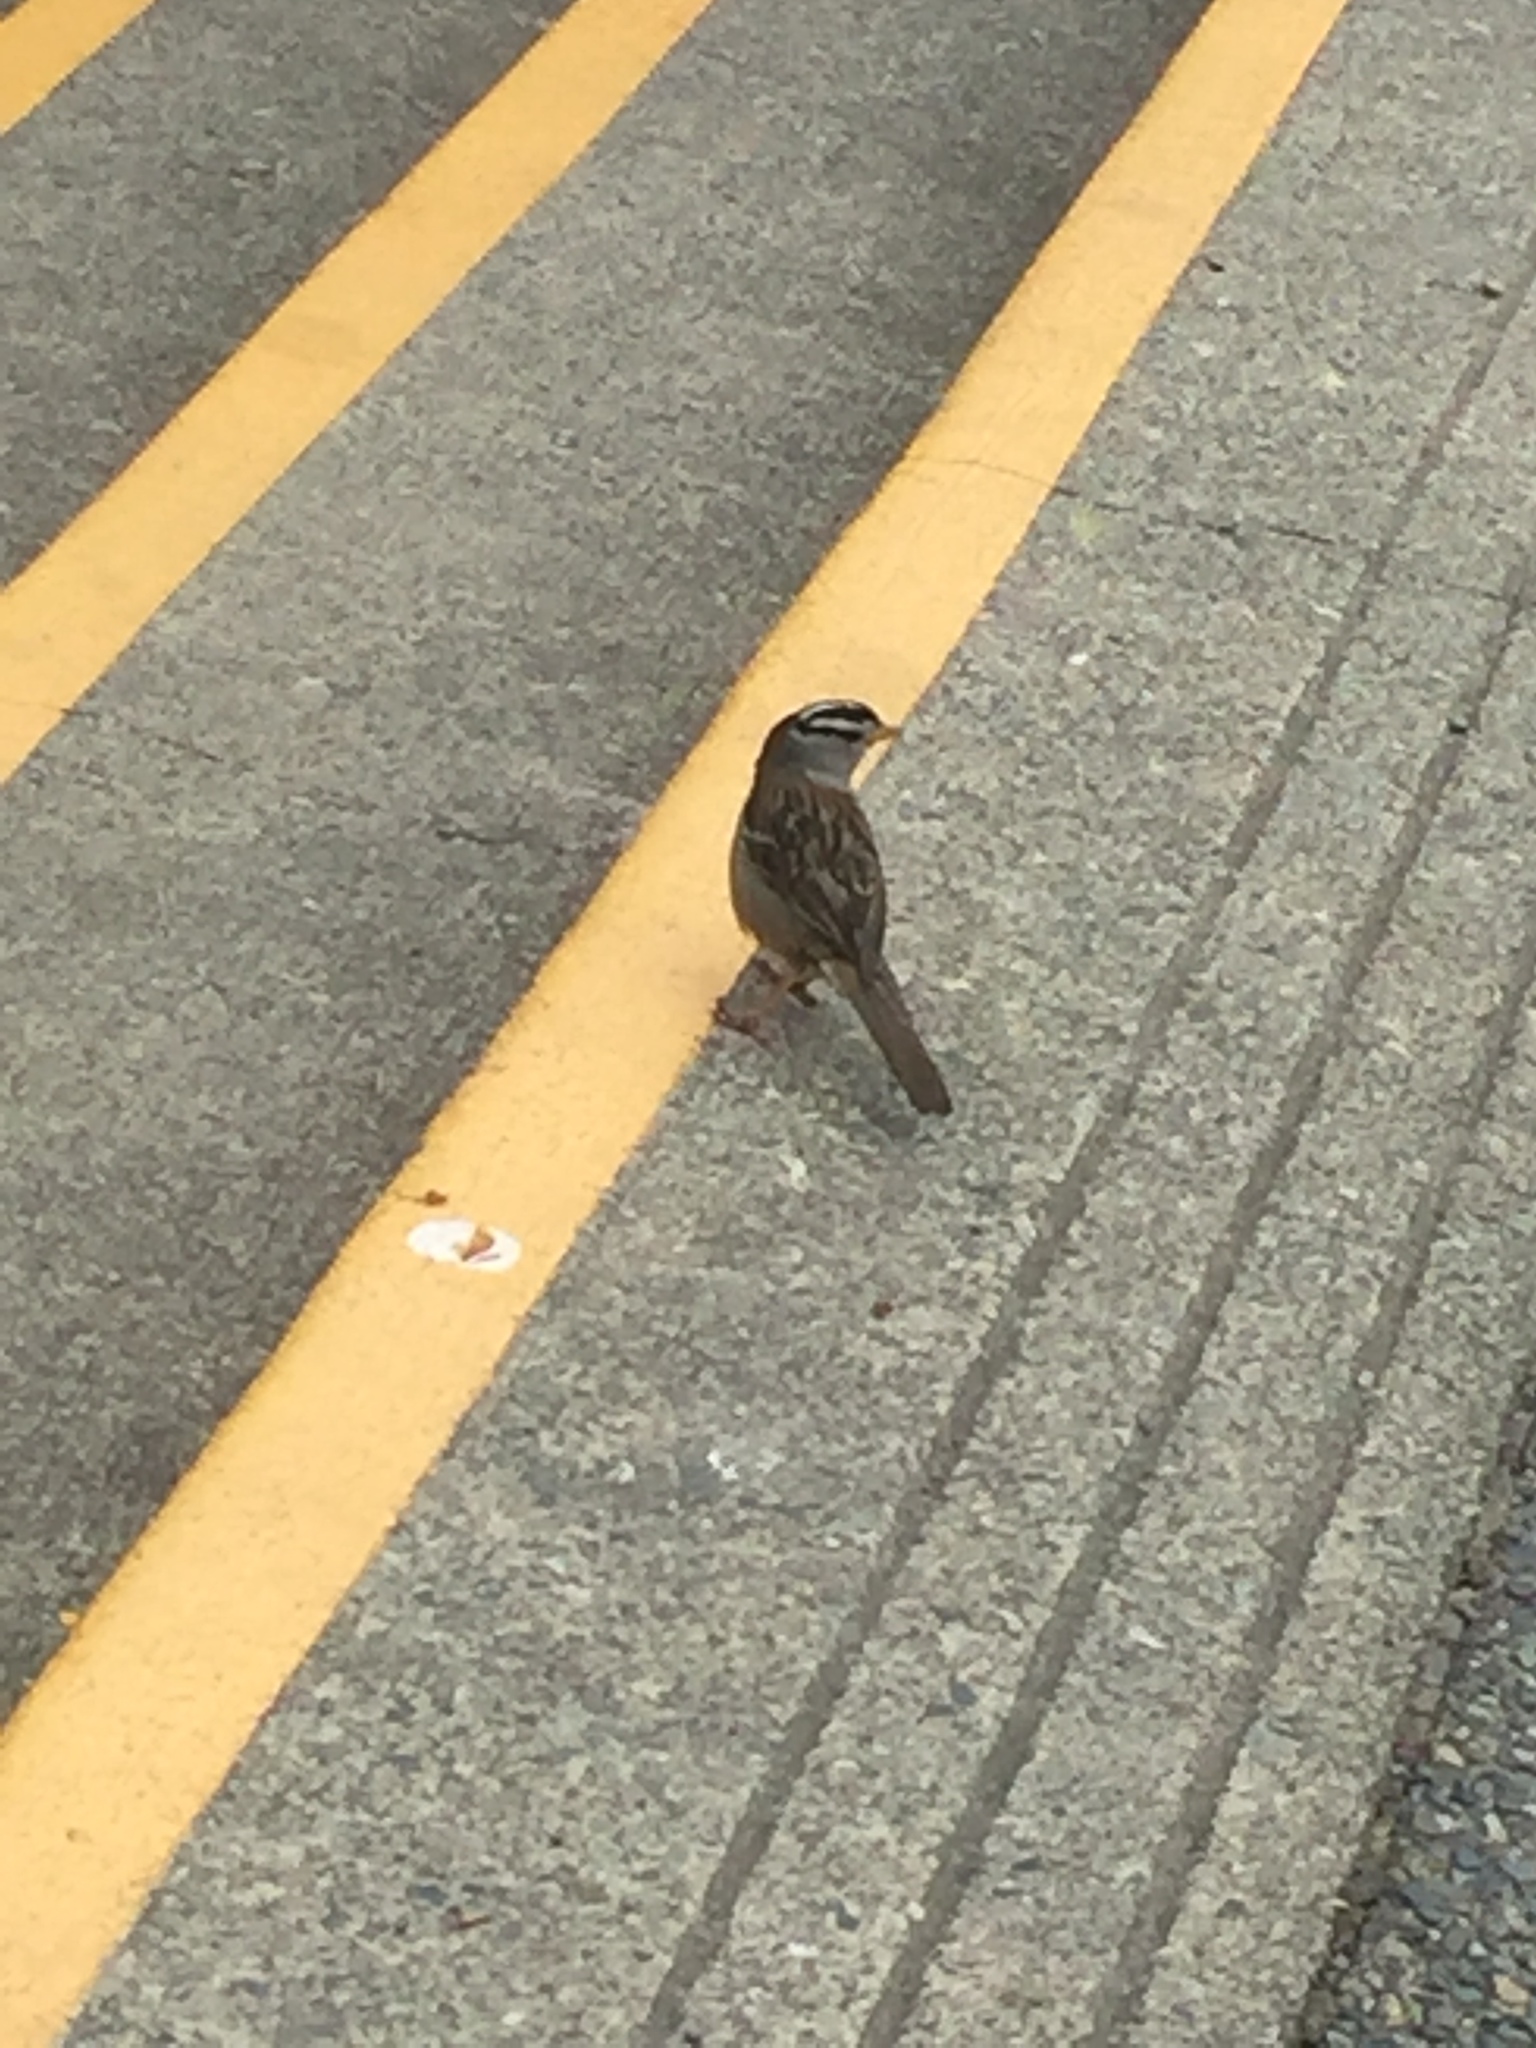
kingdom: Animalia
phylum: Chordata
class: Aves
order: Passeriformes
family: Passerellidae
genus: Zonotrichia
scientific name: Zonotrichia leucophrys
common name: White-crowned sparrow
